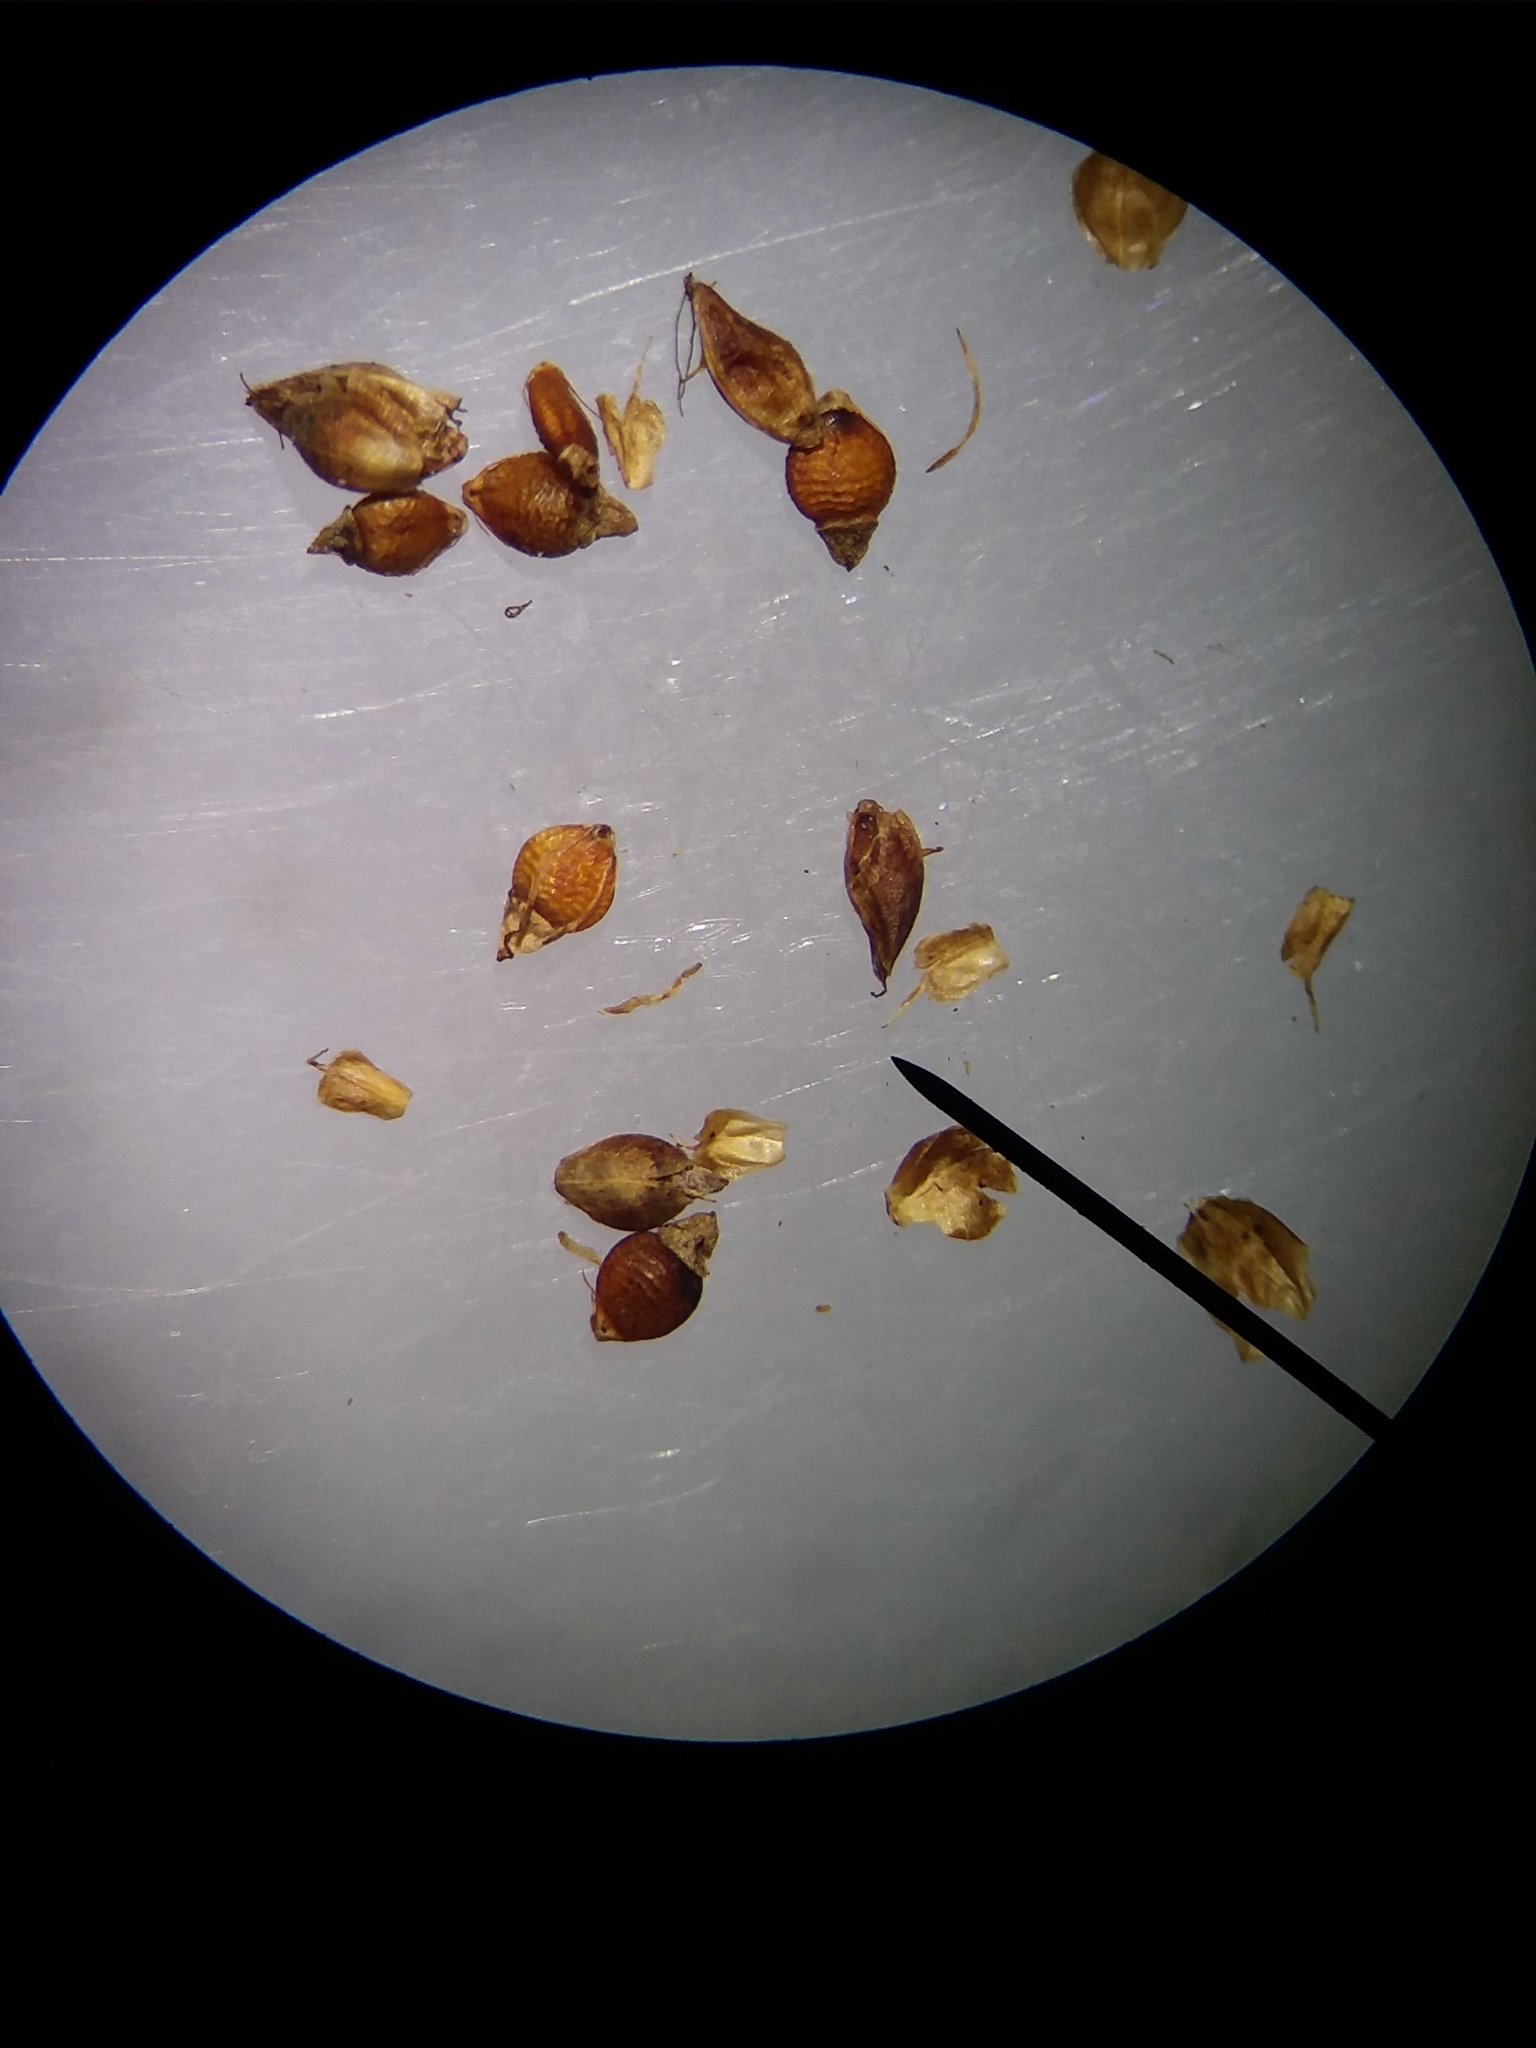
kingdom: Plantae
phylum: Tracheophyta
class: Liliopsida
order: Poales
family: Cyperaceae
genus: Rhynchospora
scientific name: Rhynchospora recognita
